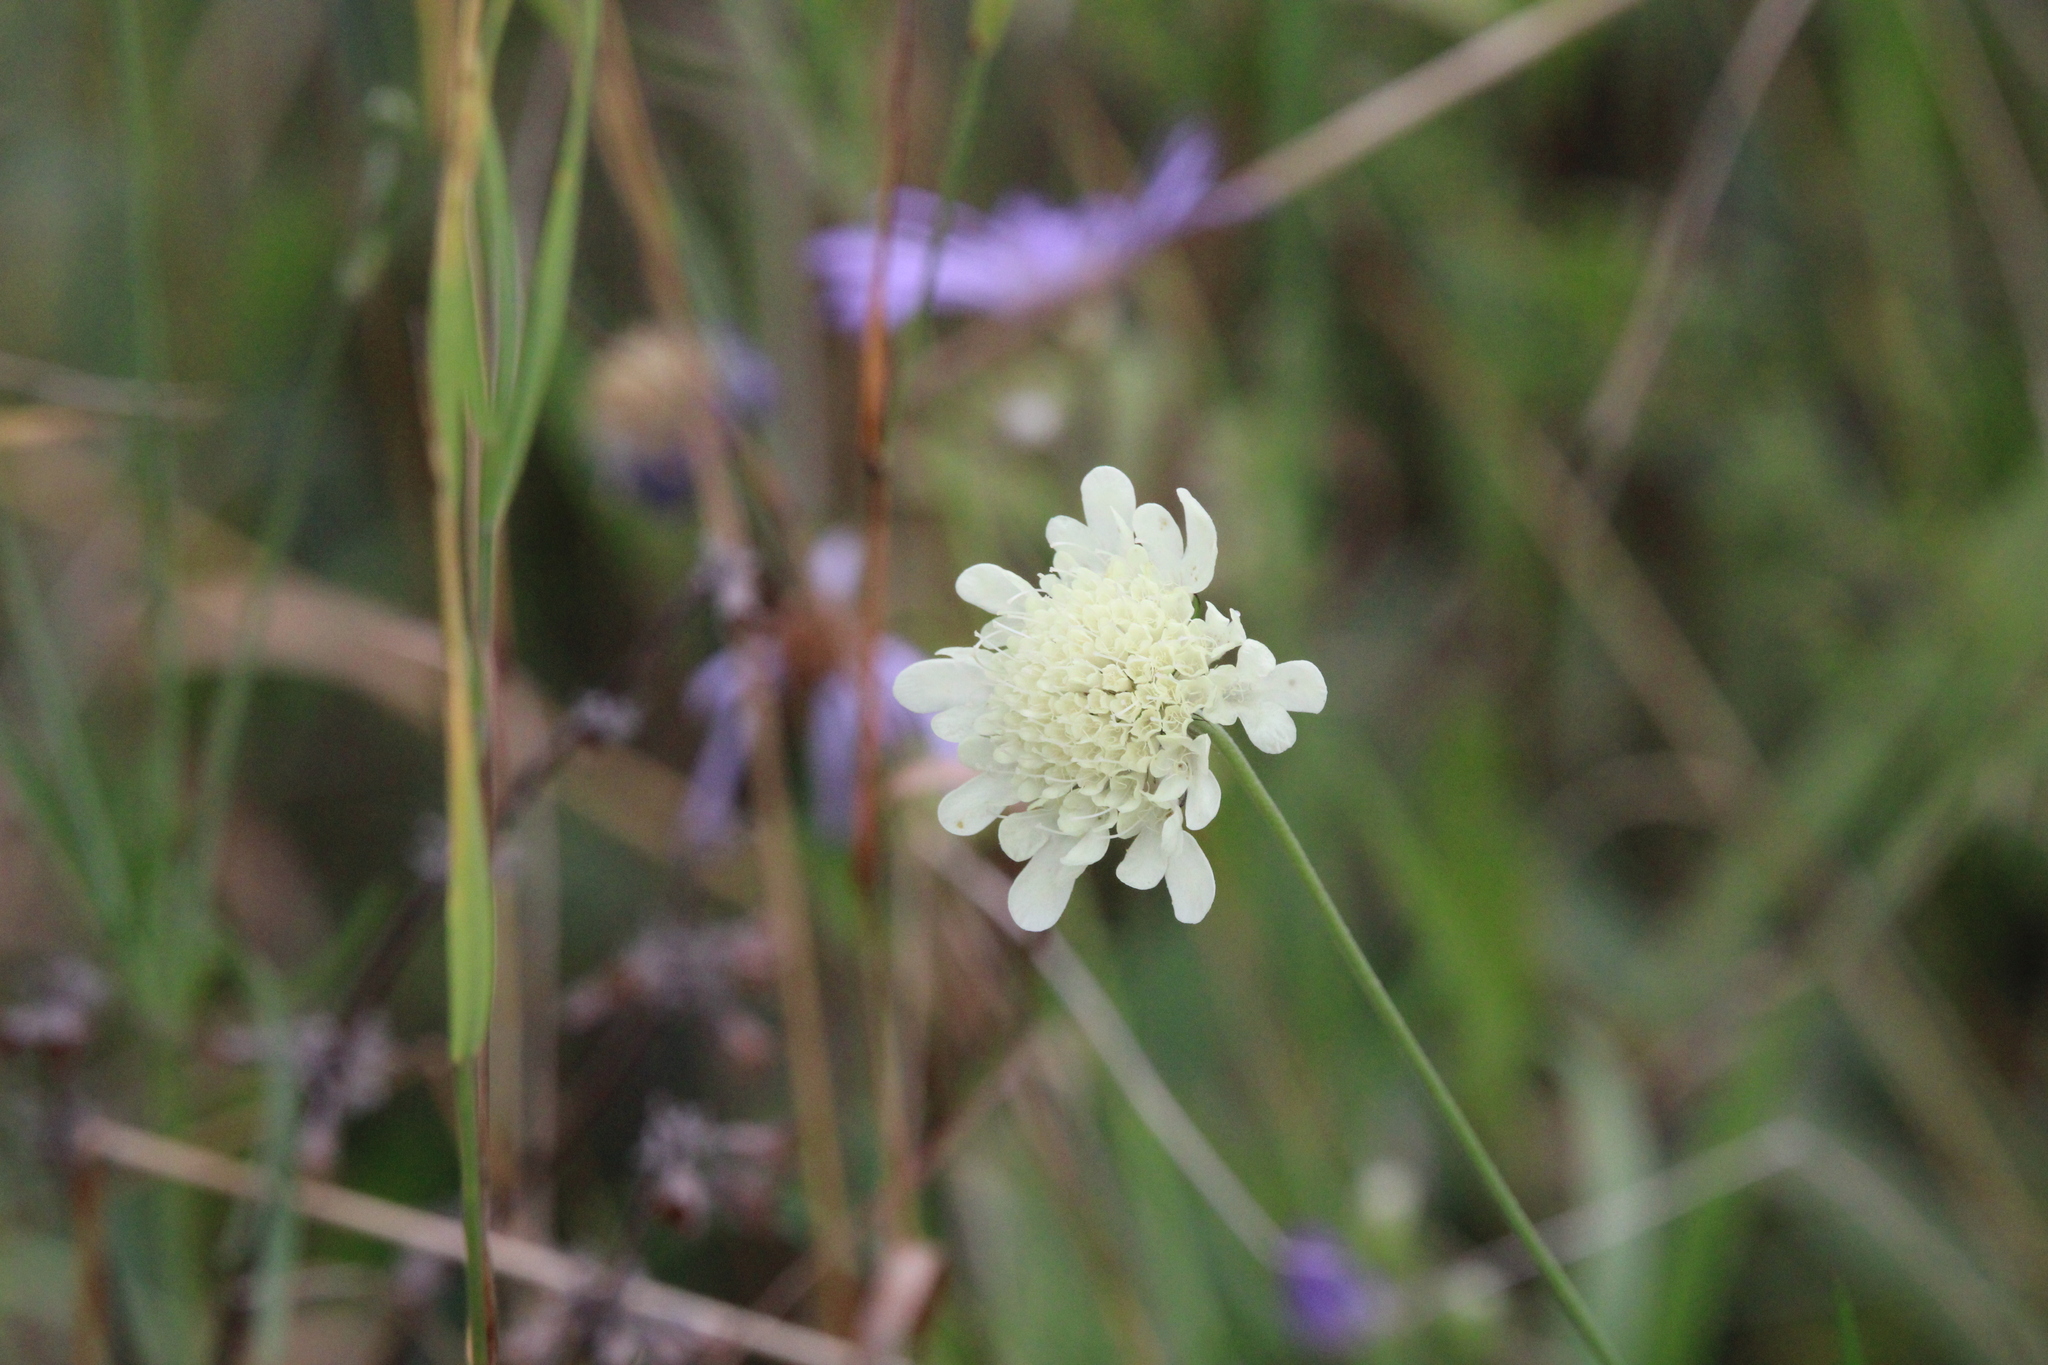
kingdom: Plantae
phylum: Tracheophyta
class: Magnoliopsida
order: Dipsacales
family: Caprifoliaceae
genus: Scabiosa
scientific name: Scabiosa ochroleuca
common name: Cream pincushions
